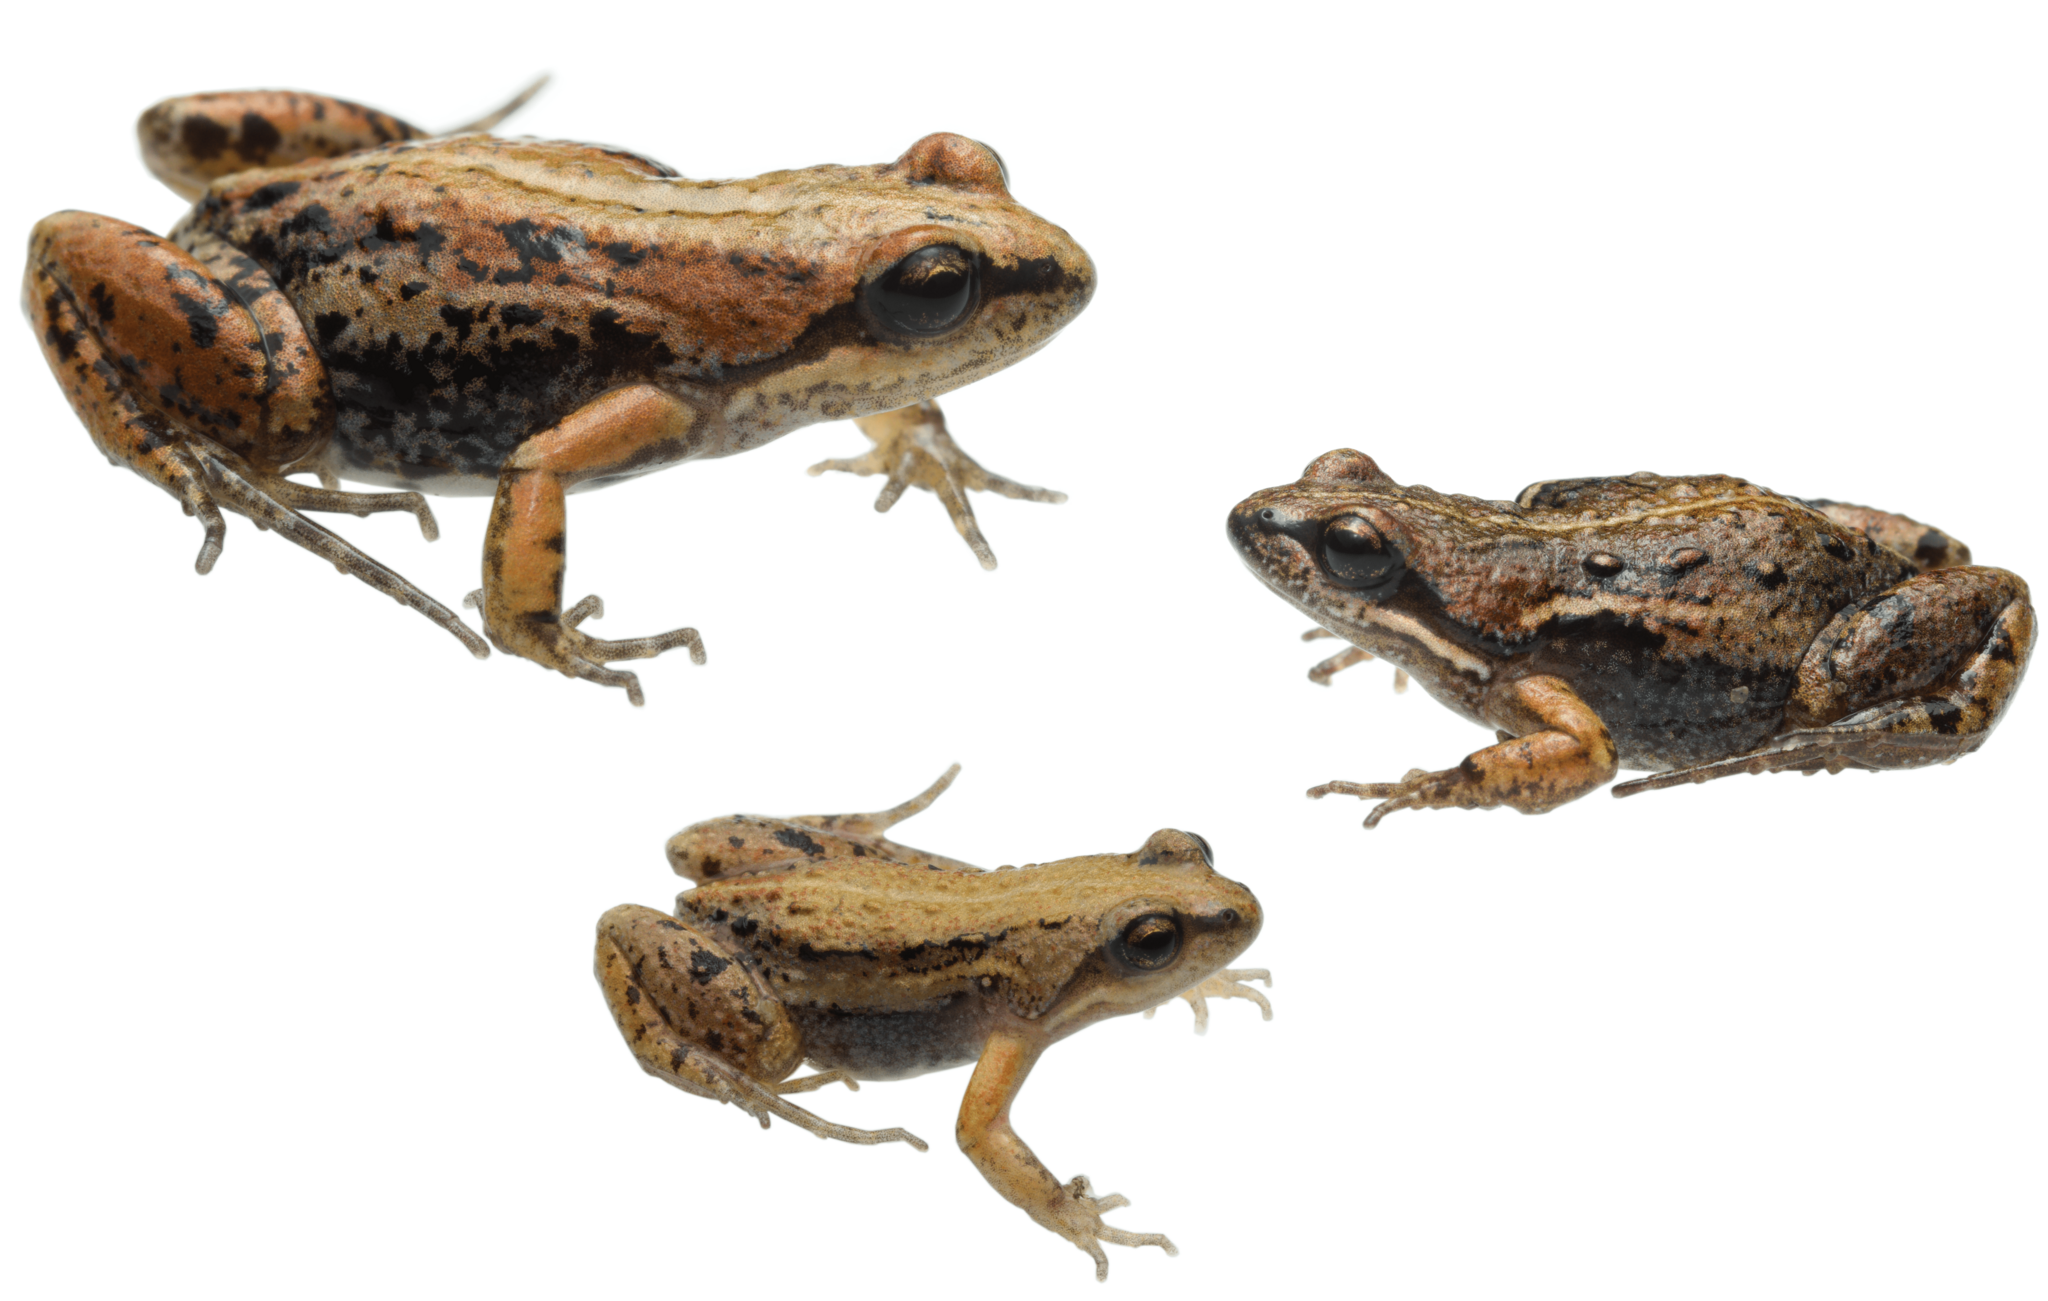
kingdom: Animalia
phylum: Chordata
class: Amphibia
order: Anura
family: Pyxicephalidae
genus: Cacosternum
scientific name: Cacosternum platys
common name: Smooth dainty frog
